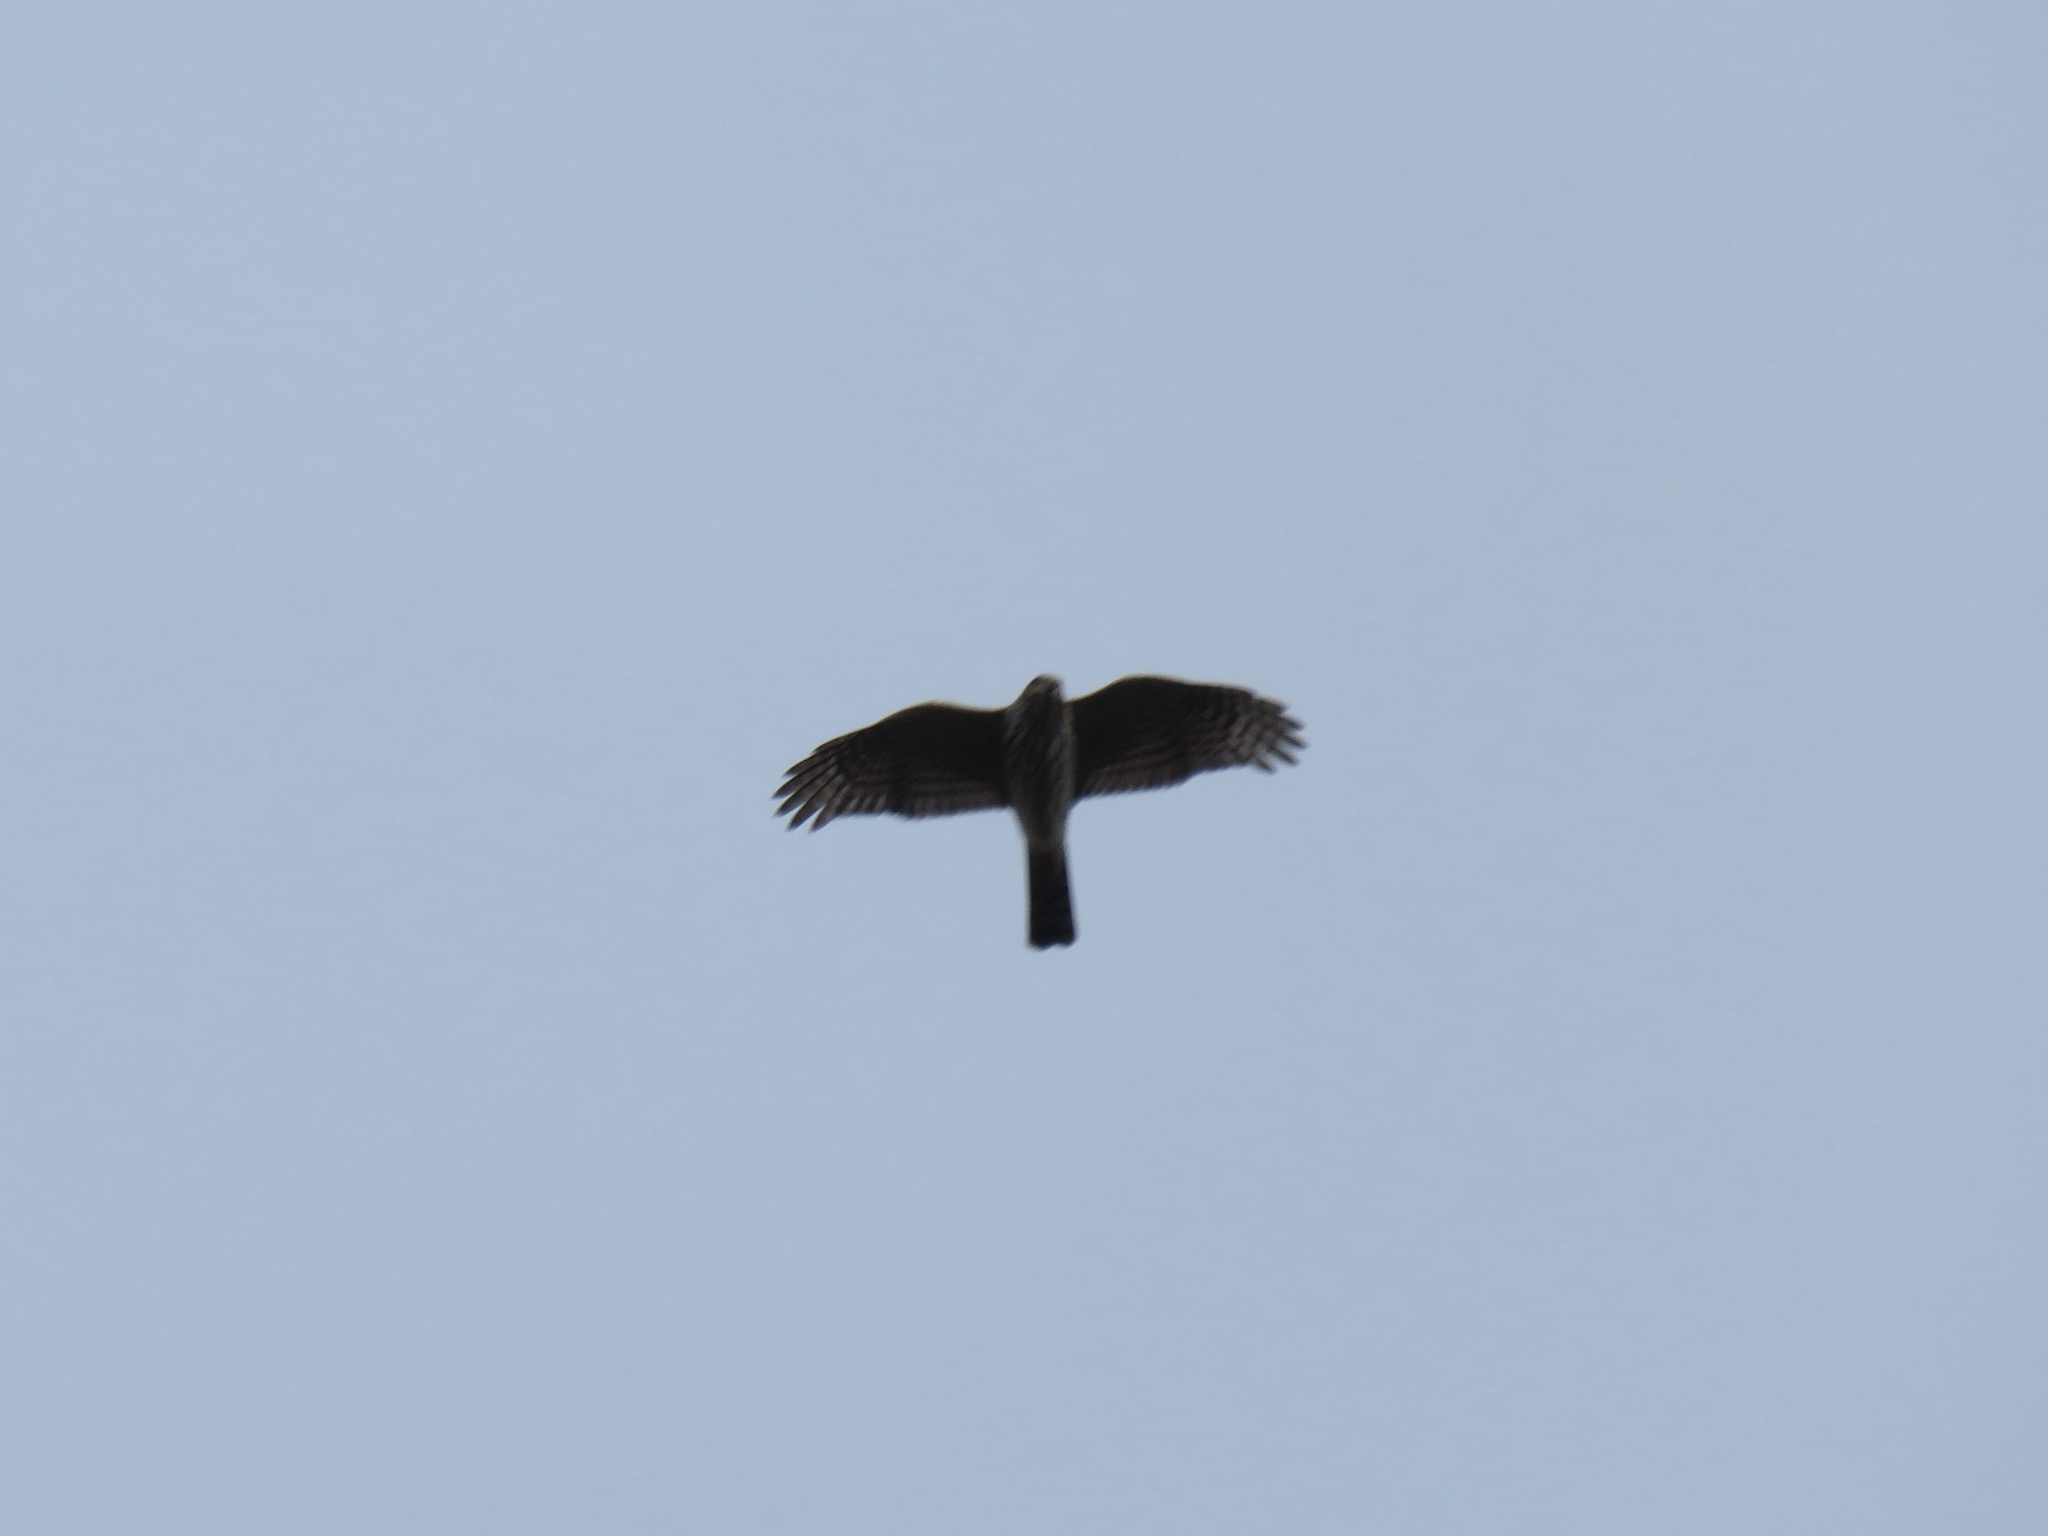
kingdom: Animalia
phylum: Chordata
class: Aves
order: Accipitriformes
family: Accipitridae
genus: Accipiter
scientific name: Accipiter striatus
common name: Sharp-shinned hawk
